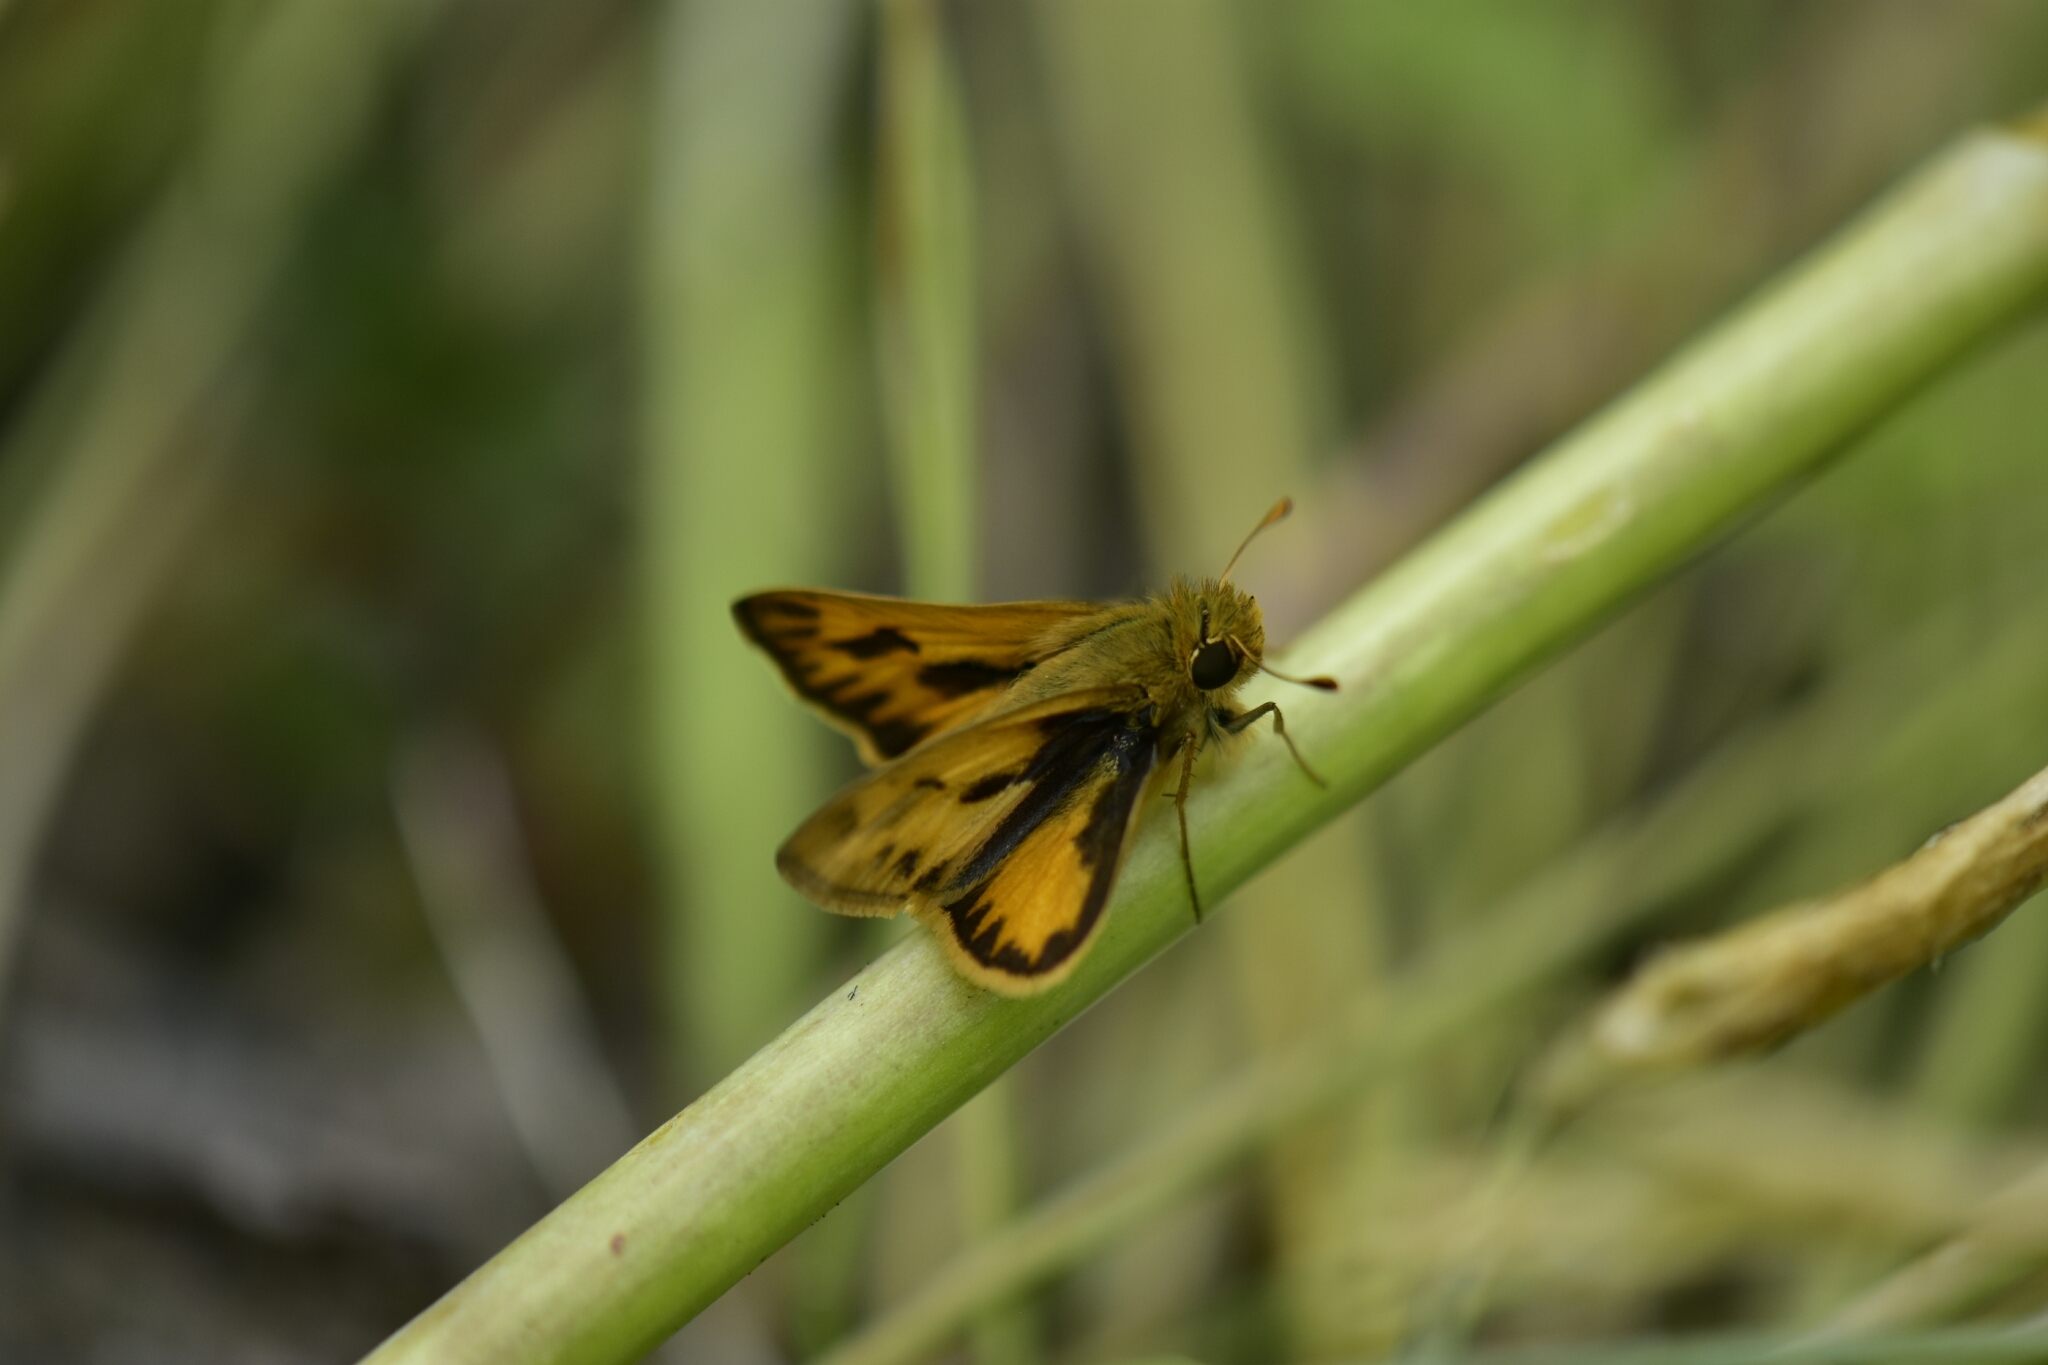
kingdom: Animalia
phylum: Arthropoda
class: Insecta
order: Lepidoptera
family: Hesperiidae
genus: Hylephila
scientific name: Hylephila phyleus
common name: Fiery skipper
